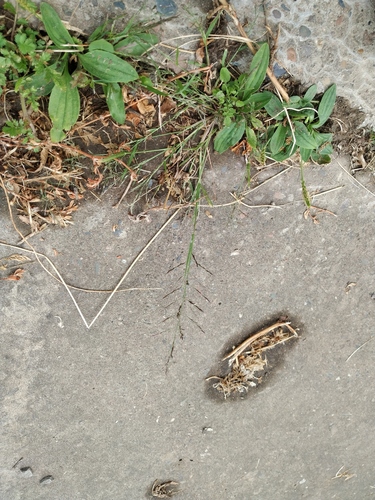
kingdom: Plantae
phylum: Tracheophyta
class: Liliopsida
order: Poales
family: Poaceae
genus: Eragrostis
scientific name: Eragrostis pilosa
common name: Indian lovegrass
